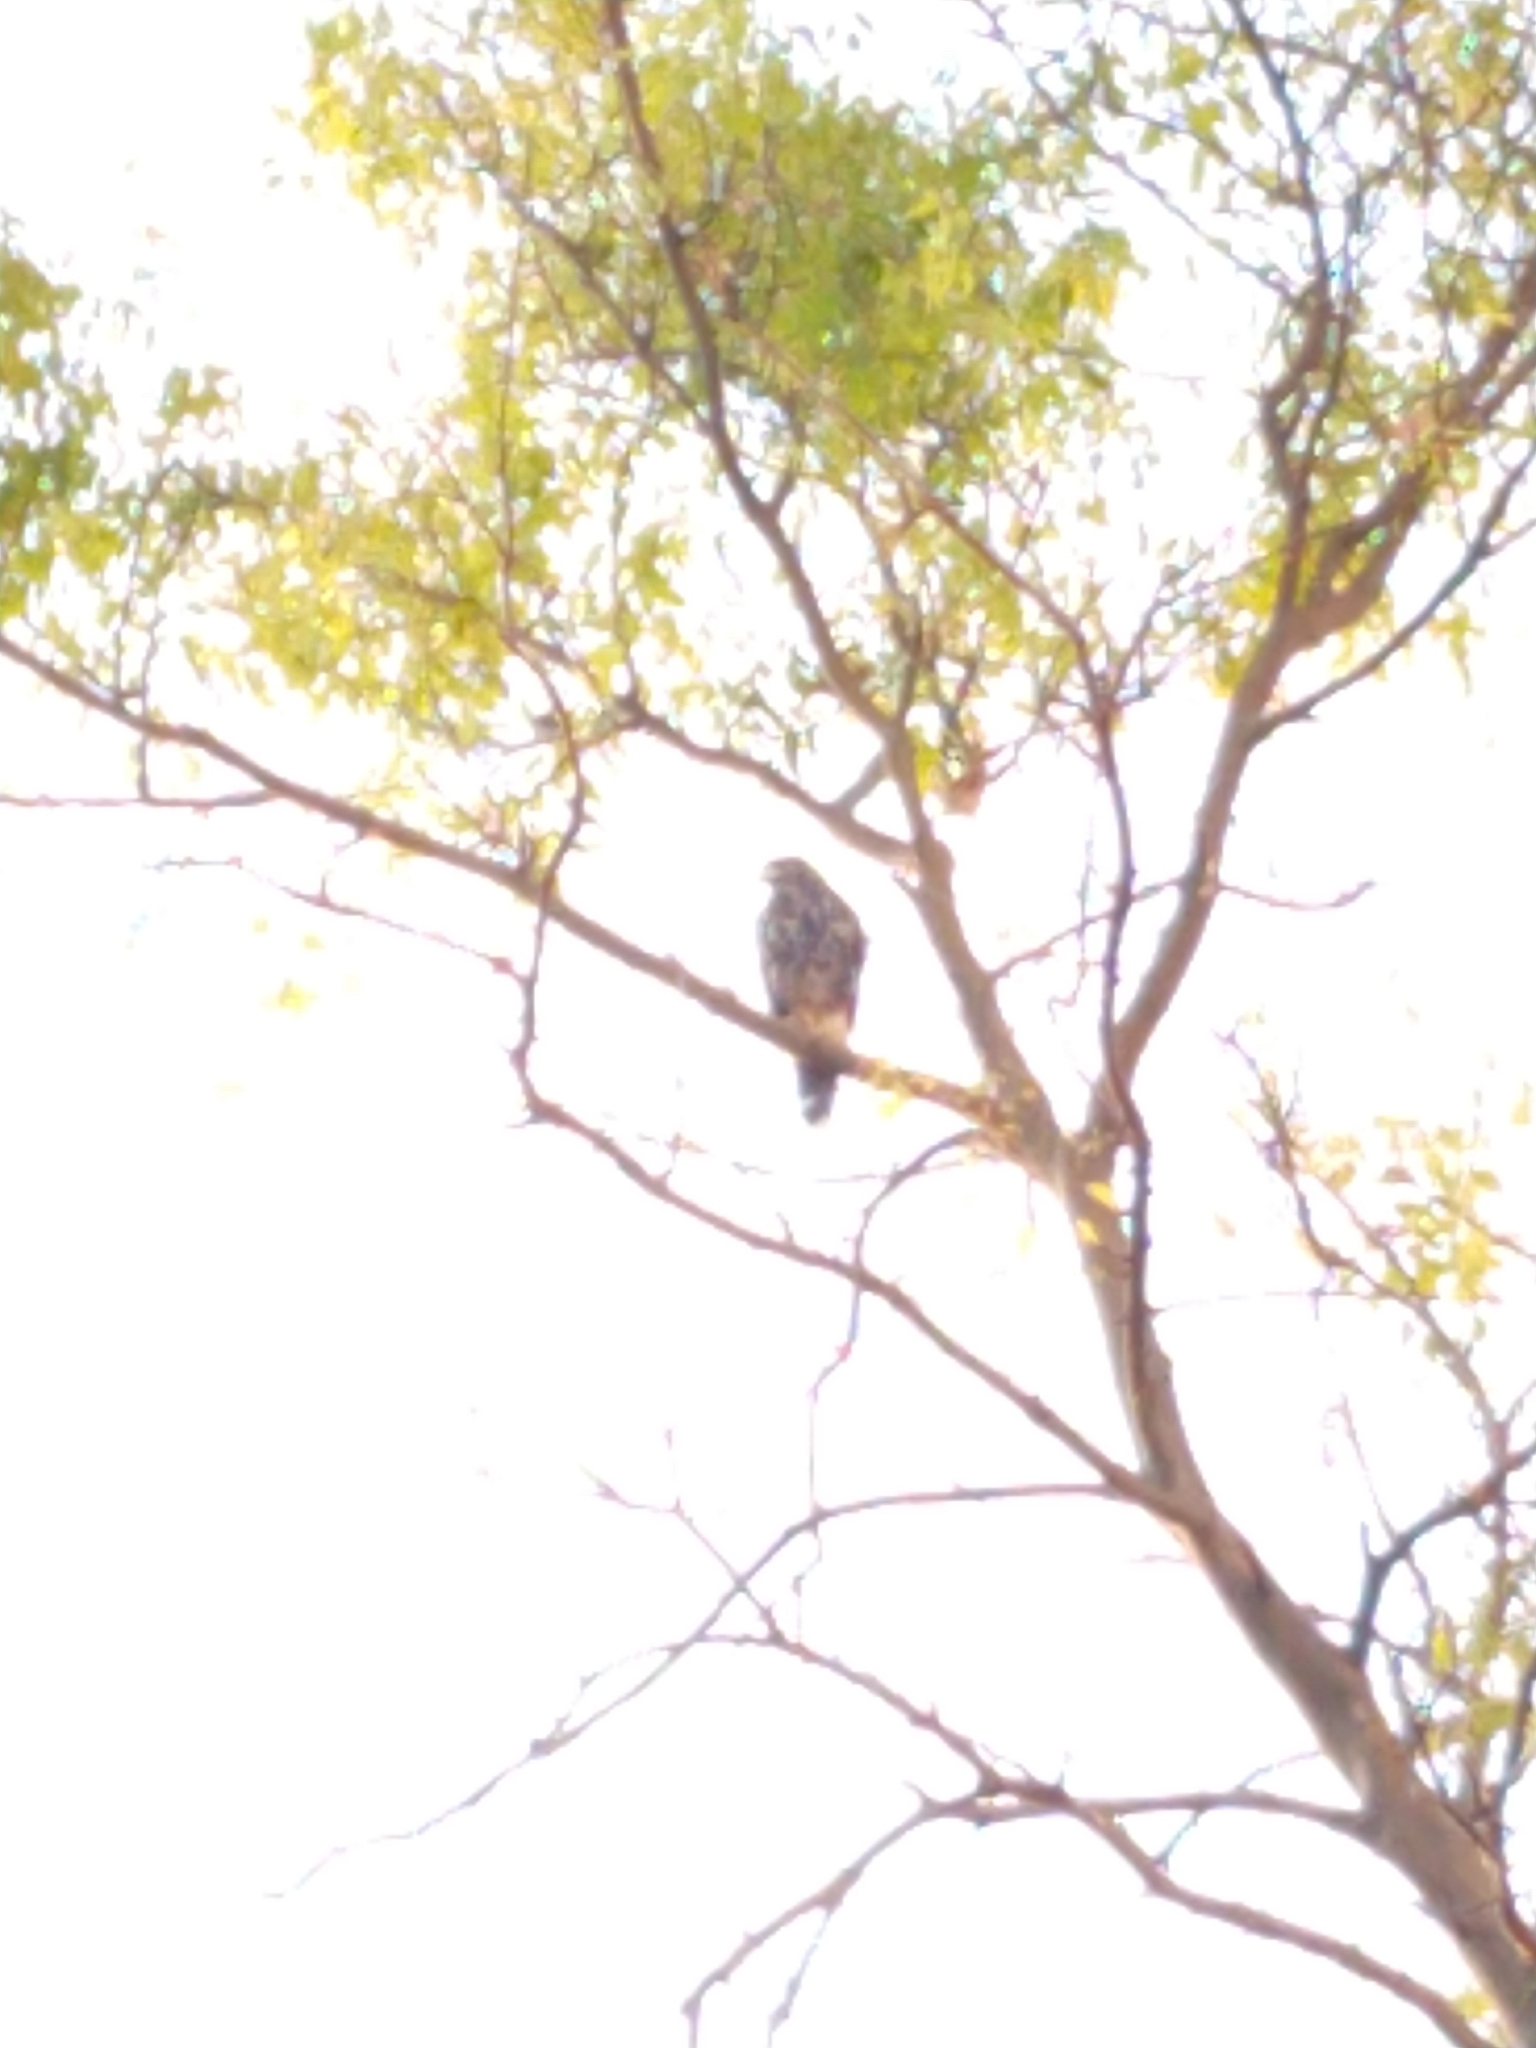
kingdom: Animalia
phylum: Chordata
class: Aves
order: Accipitriformes
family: Accipitridae
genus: Parabuteo
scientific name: Parabuteo unicinctus
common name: Harris's hawk
